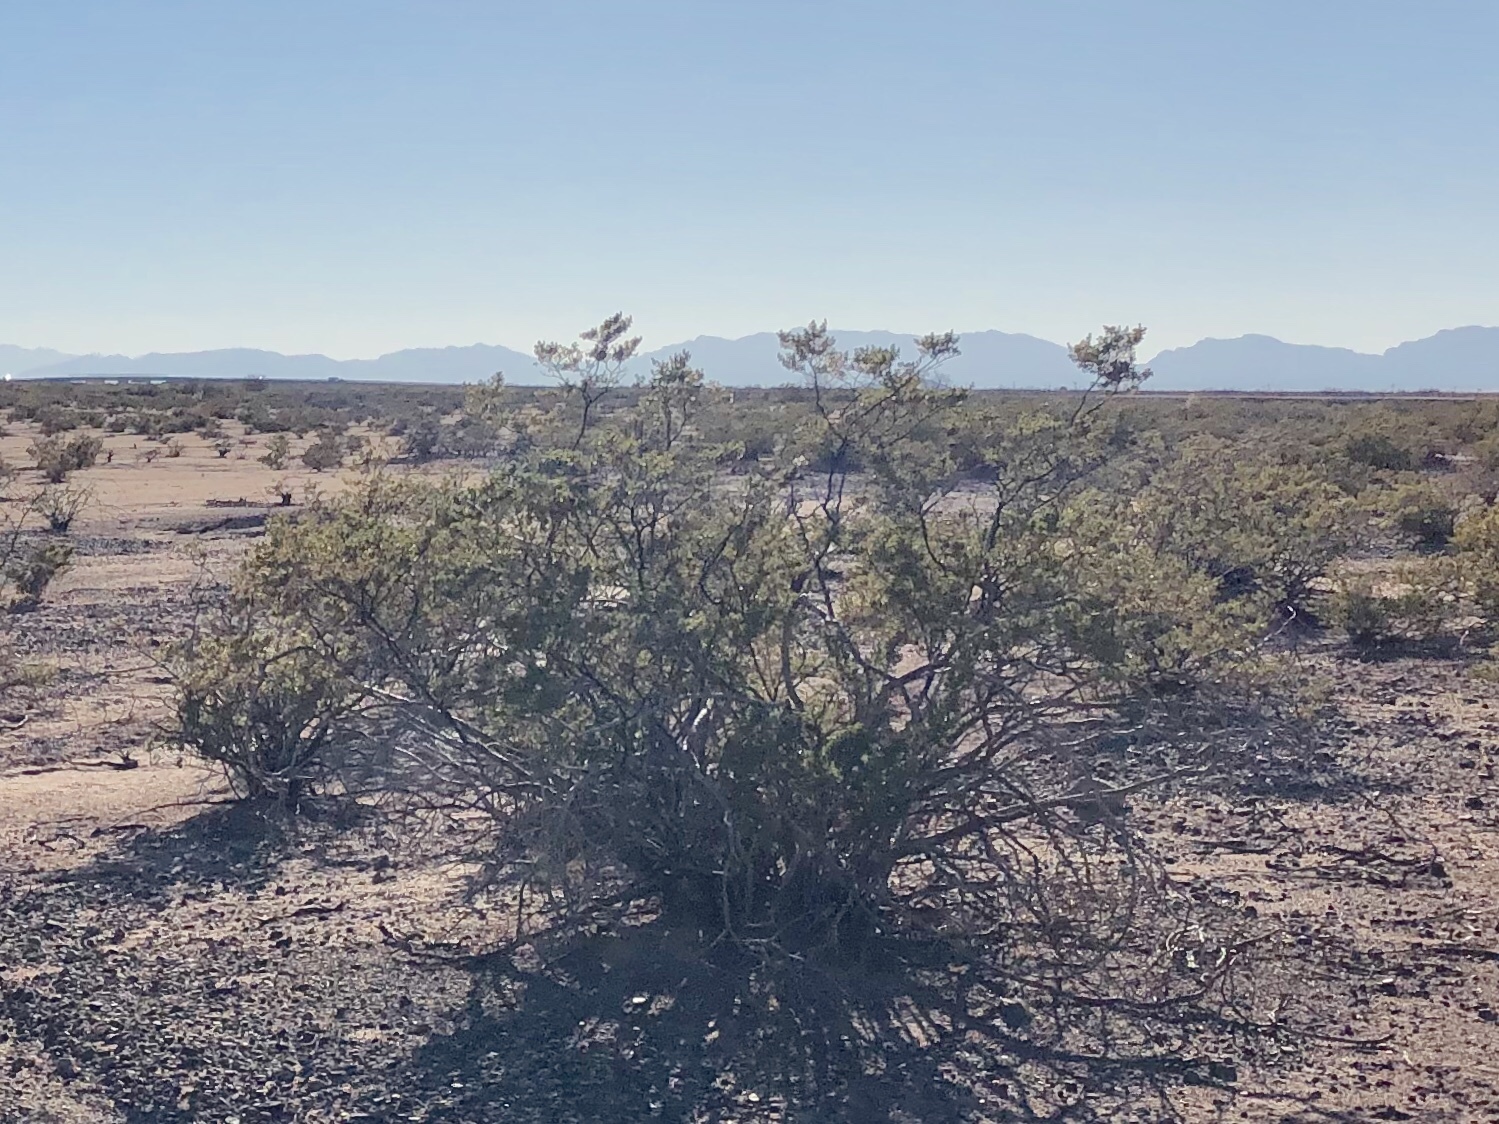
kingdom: Plantae
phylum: Tracheophyta
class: Magnoliopsida
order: Zygophyllales
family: Zygophyllaceae
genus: Larrea
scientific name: Larrea tridentata
